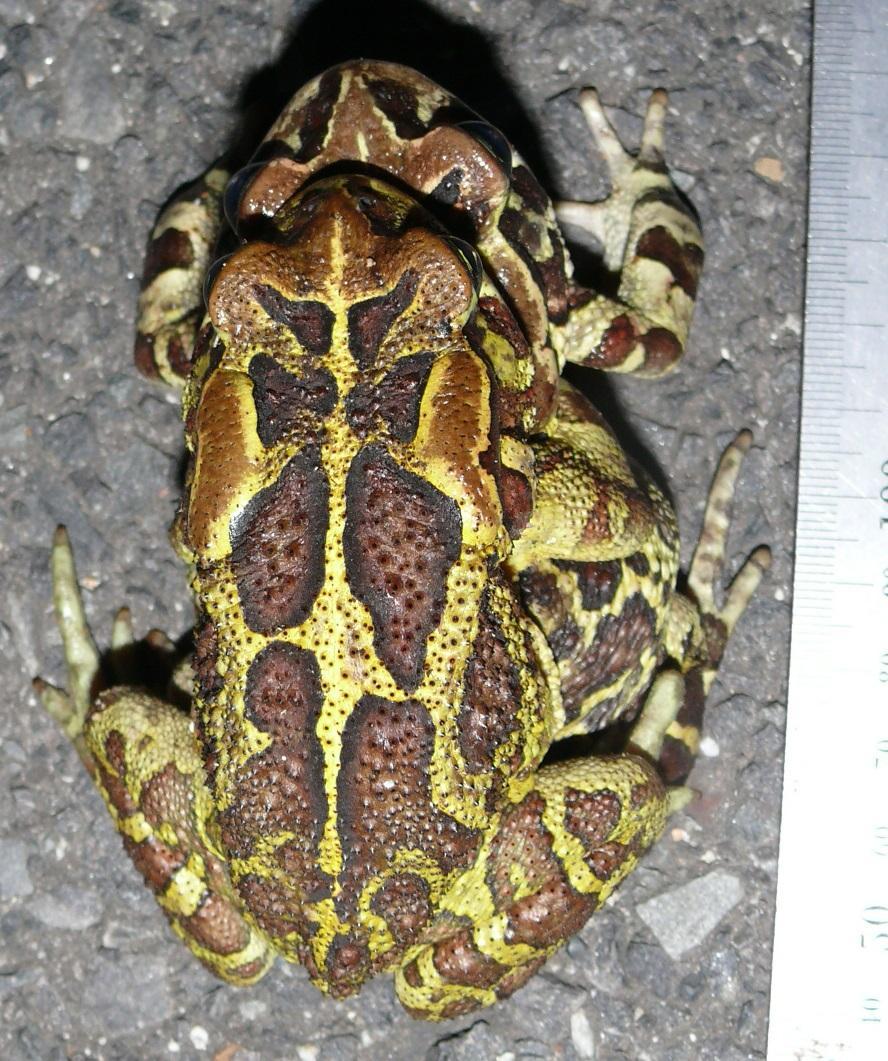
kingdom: Animalia
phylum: Chordata
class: Amphibia
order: Anura
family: Bufonidae
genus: Sclerophrys
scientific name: Sclerophrys pantherina
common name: Panther toad
